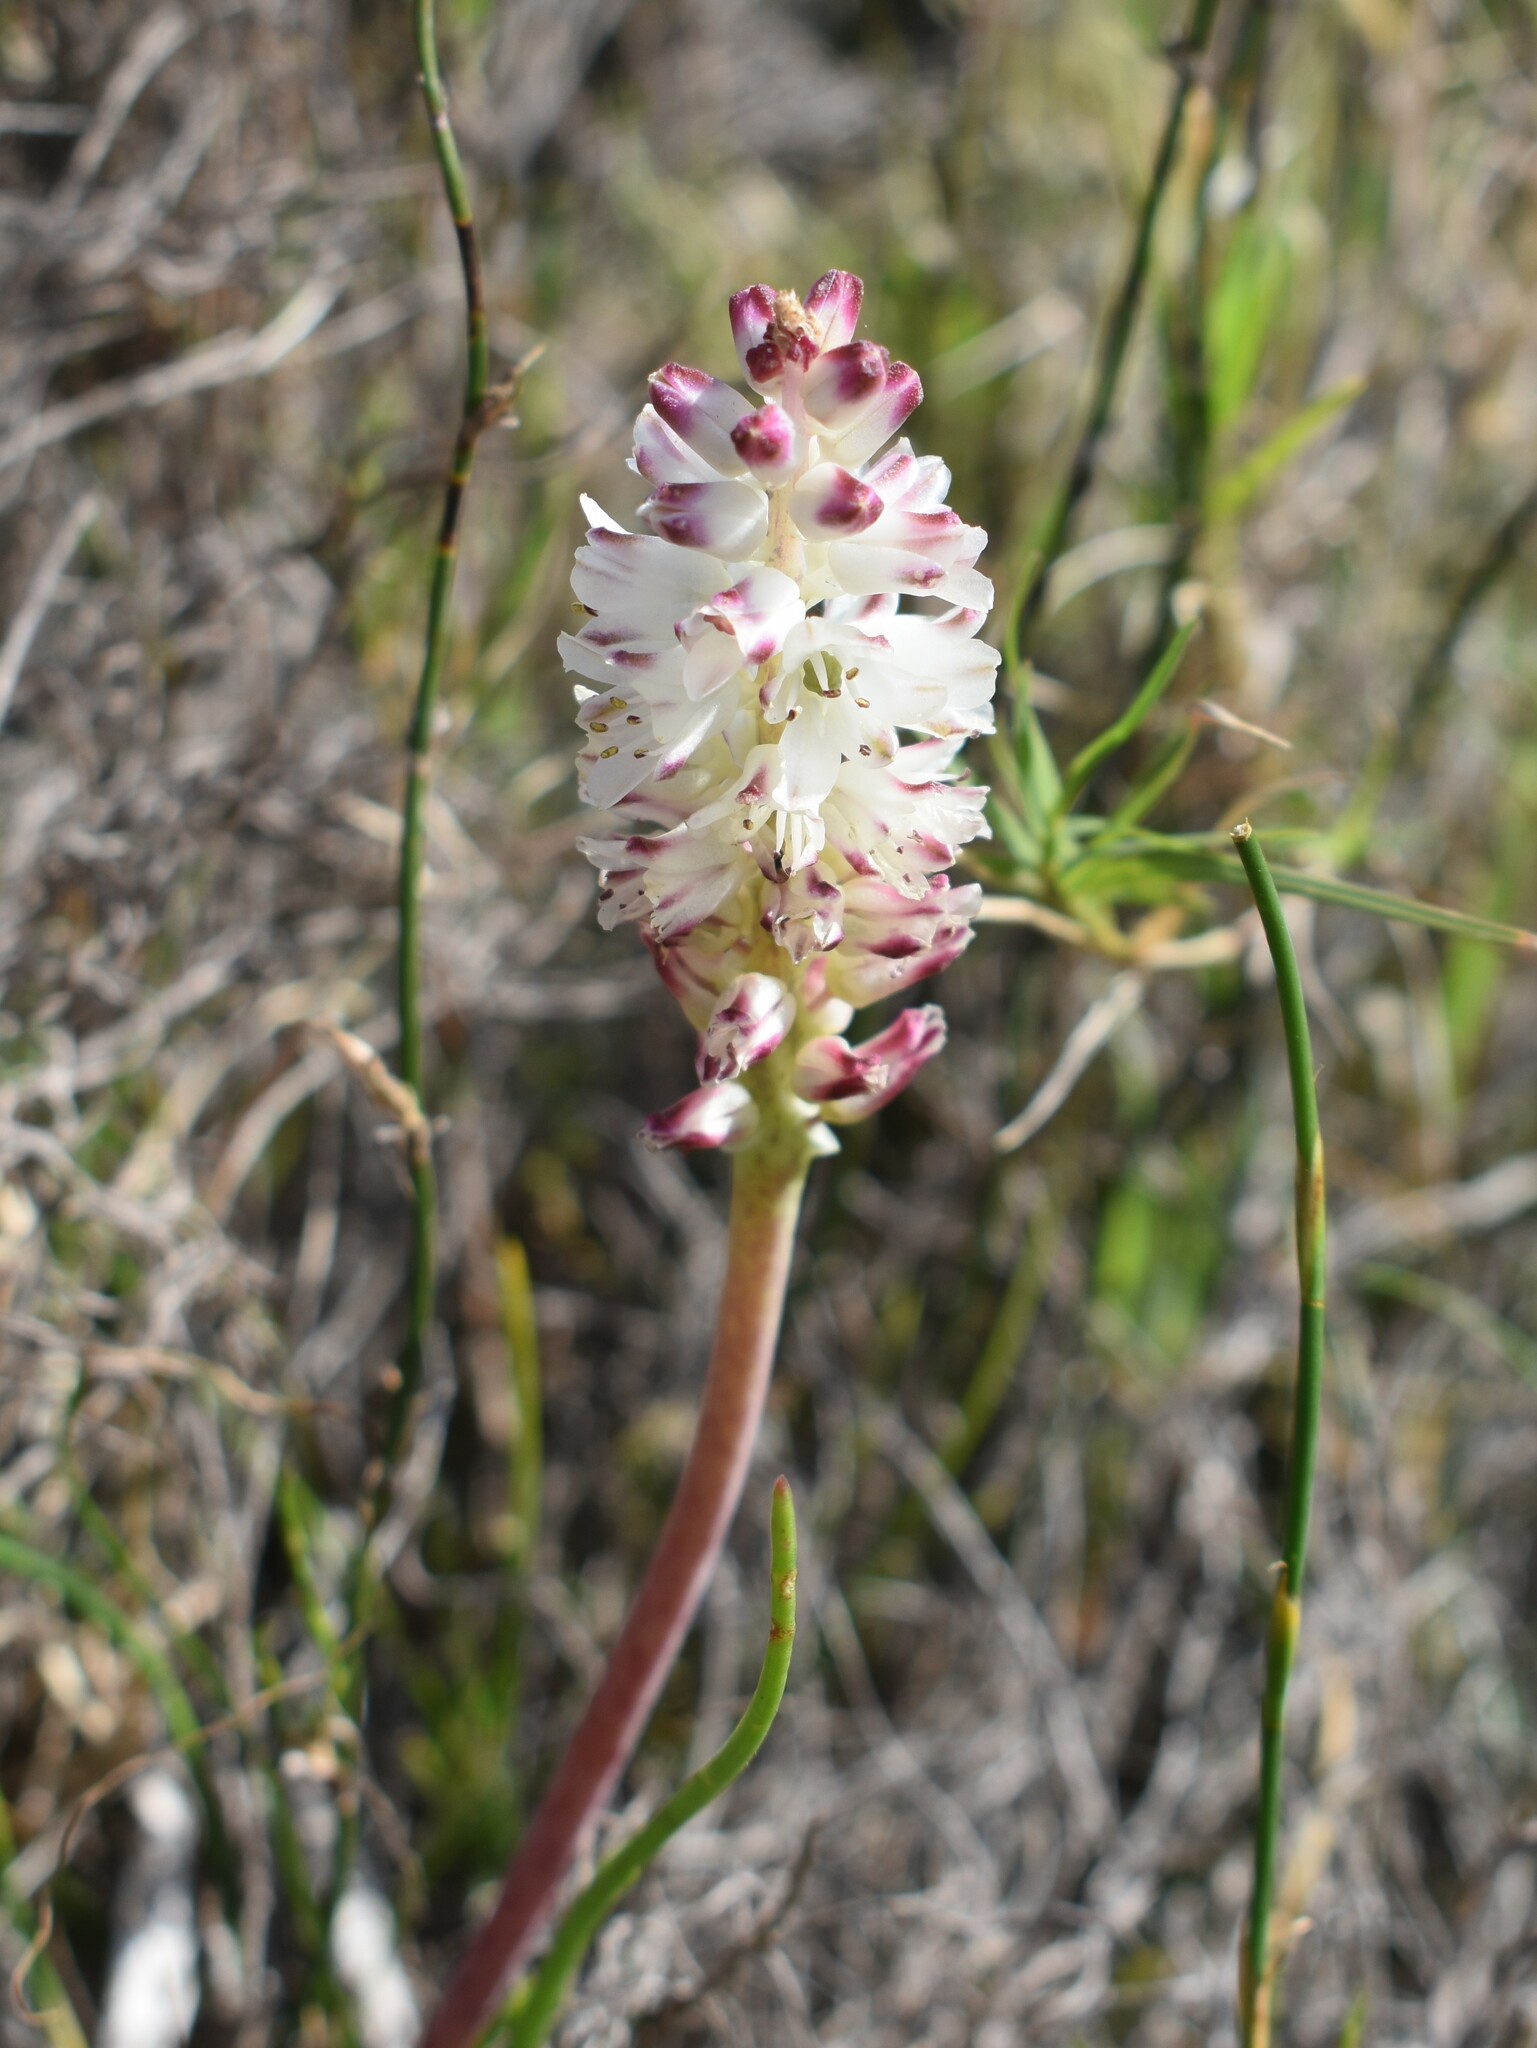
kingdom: Plantae
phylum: Tracheophyta
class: Liliopsida
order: Asparagales
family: Asparagaceae
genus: Lachenalia
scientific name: Lachenalia contaminata
